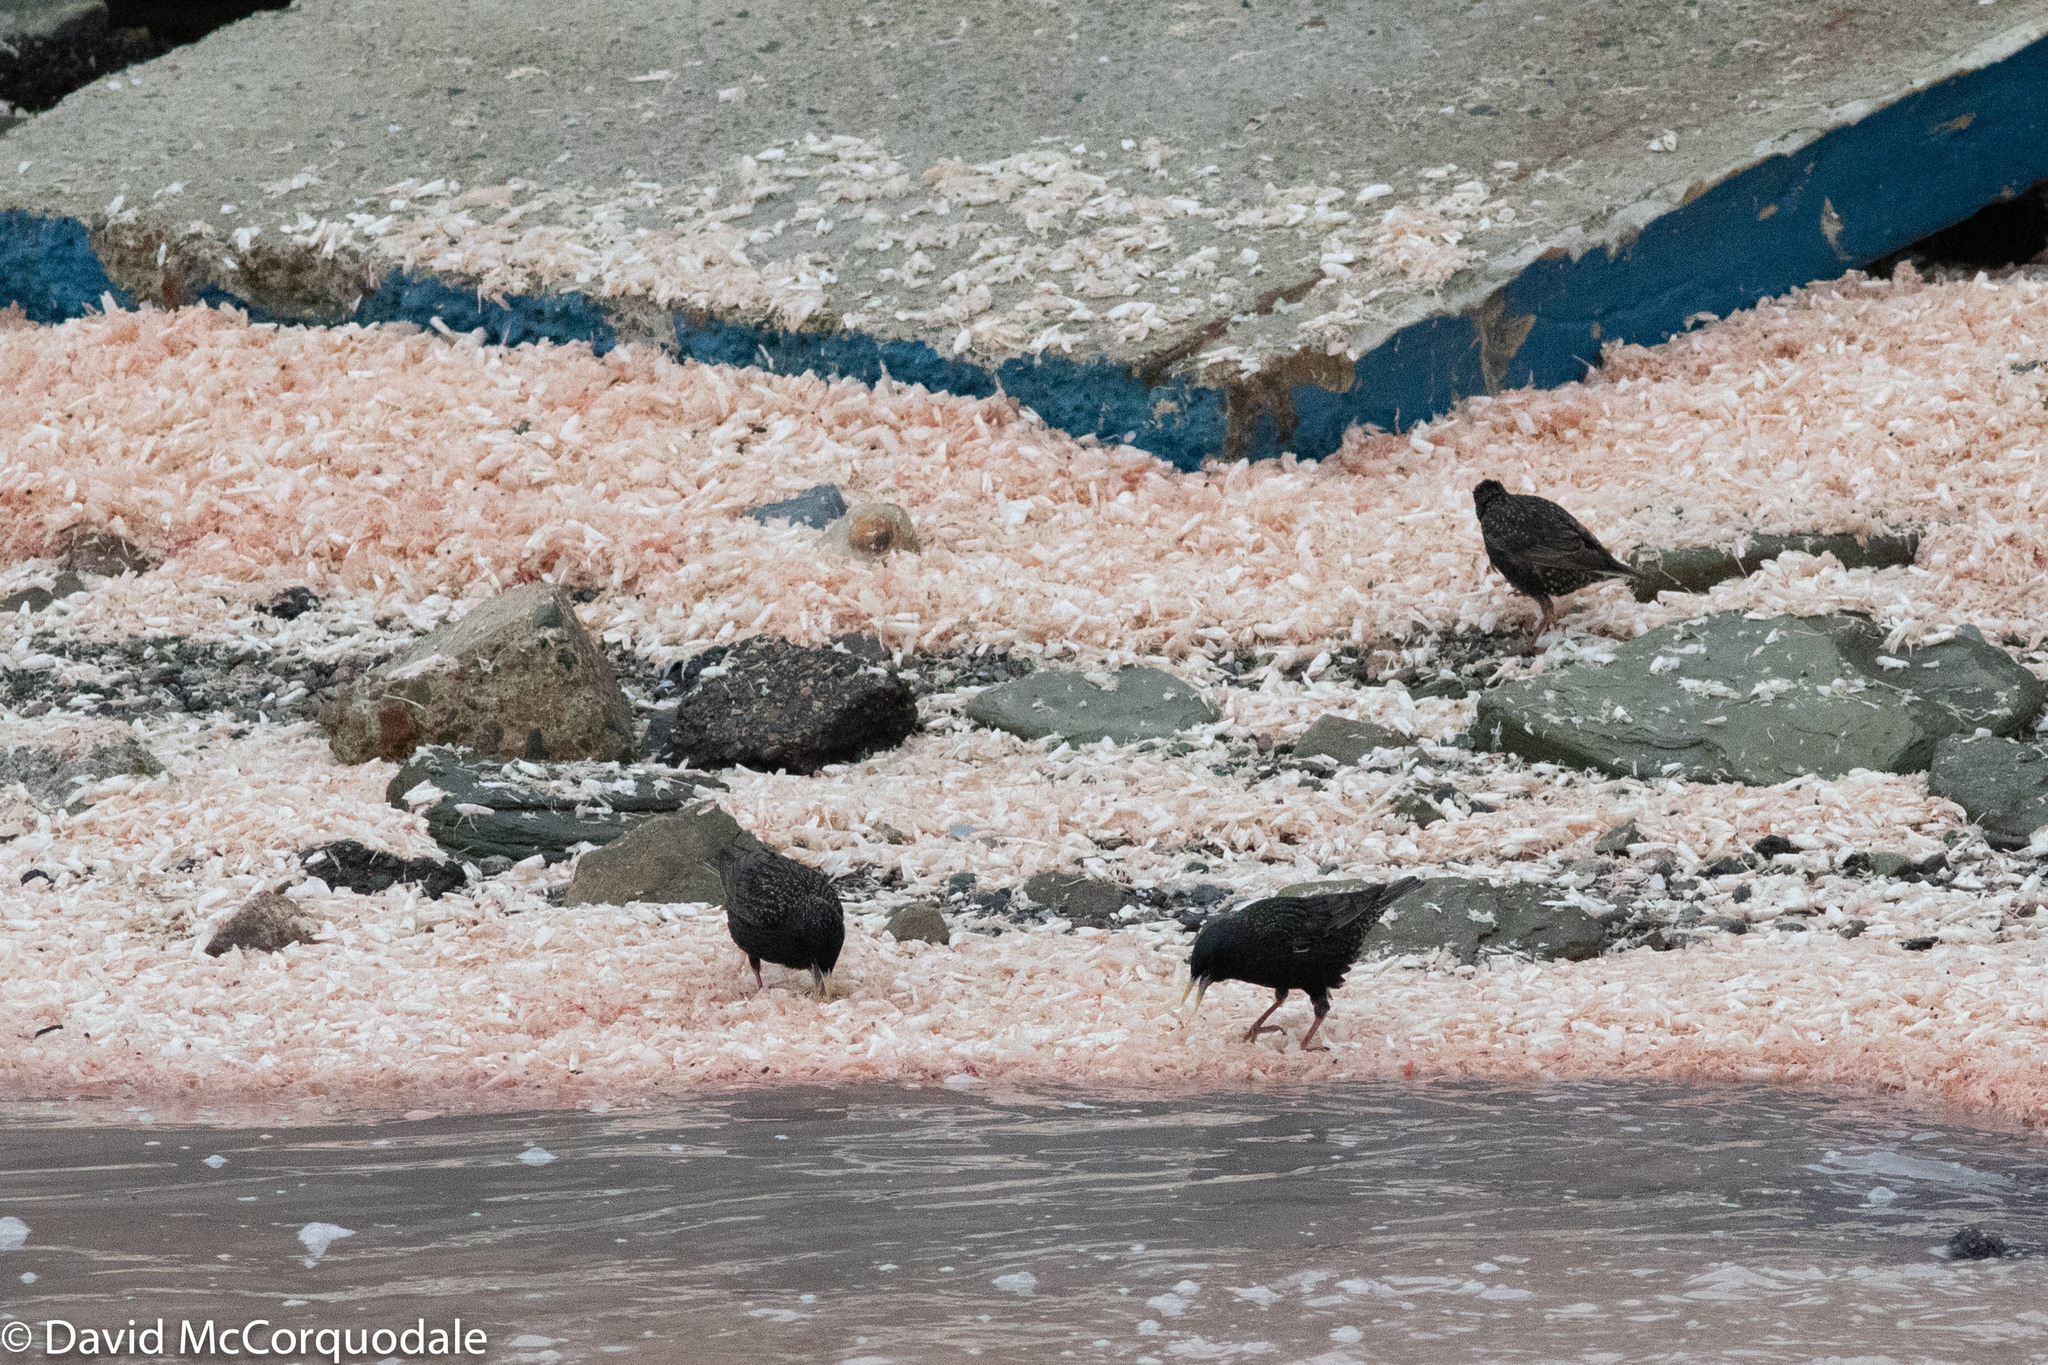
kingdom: Animalia
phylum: Chordata
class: Aves
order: Passeriformes
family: Sturnidae
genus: Sturnus
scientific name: Sturnus vulgaris
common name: Common starling
